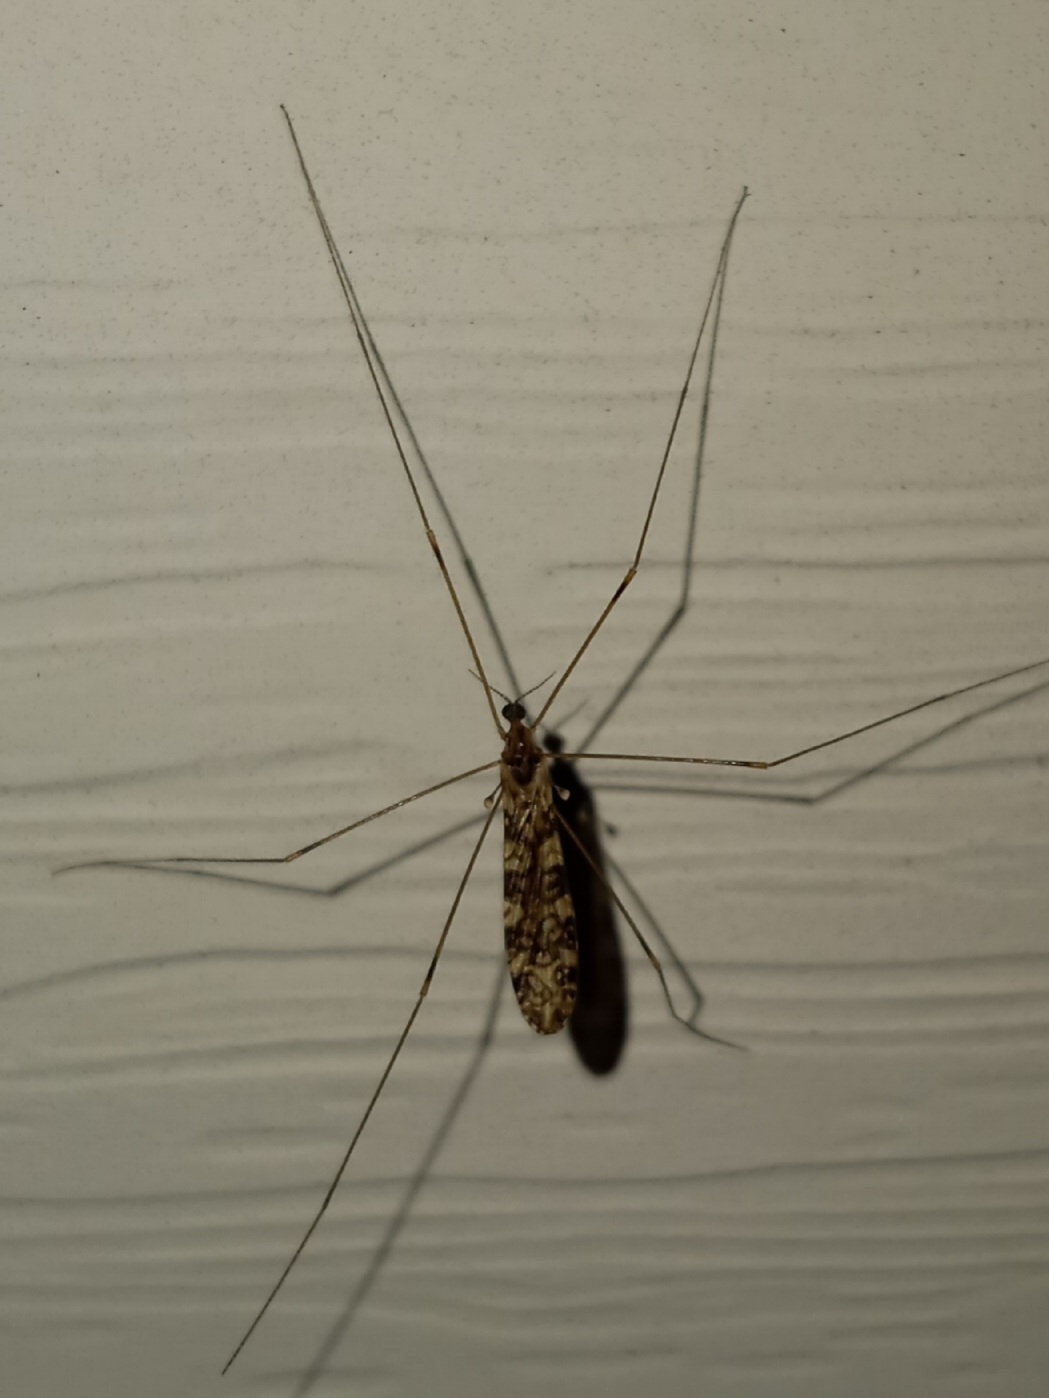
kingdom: Animalia
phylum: Arthropoda
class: Insecta
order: Diptera
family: Limoniidae
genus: Limonia
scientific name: Limonia annulata
